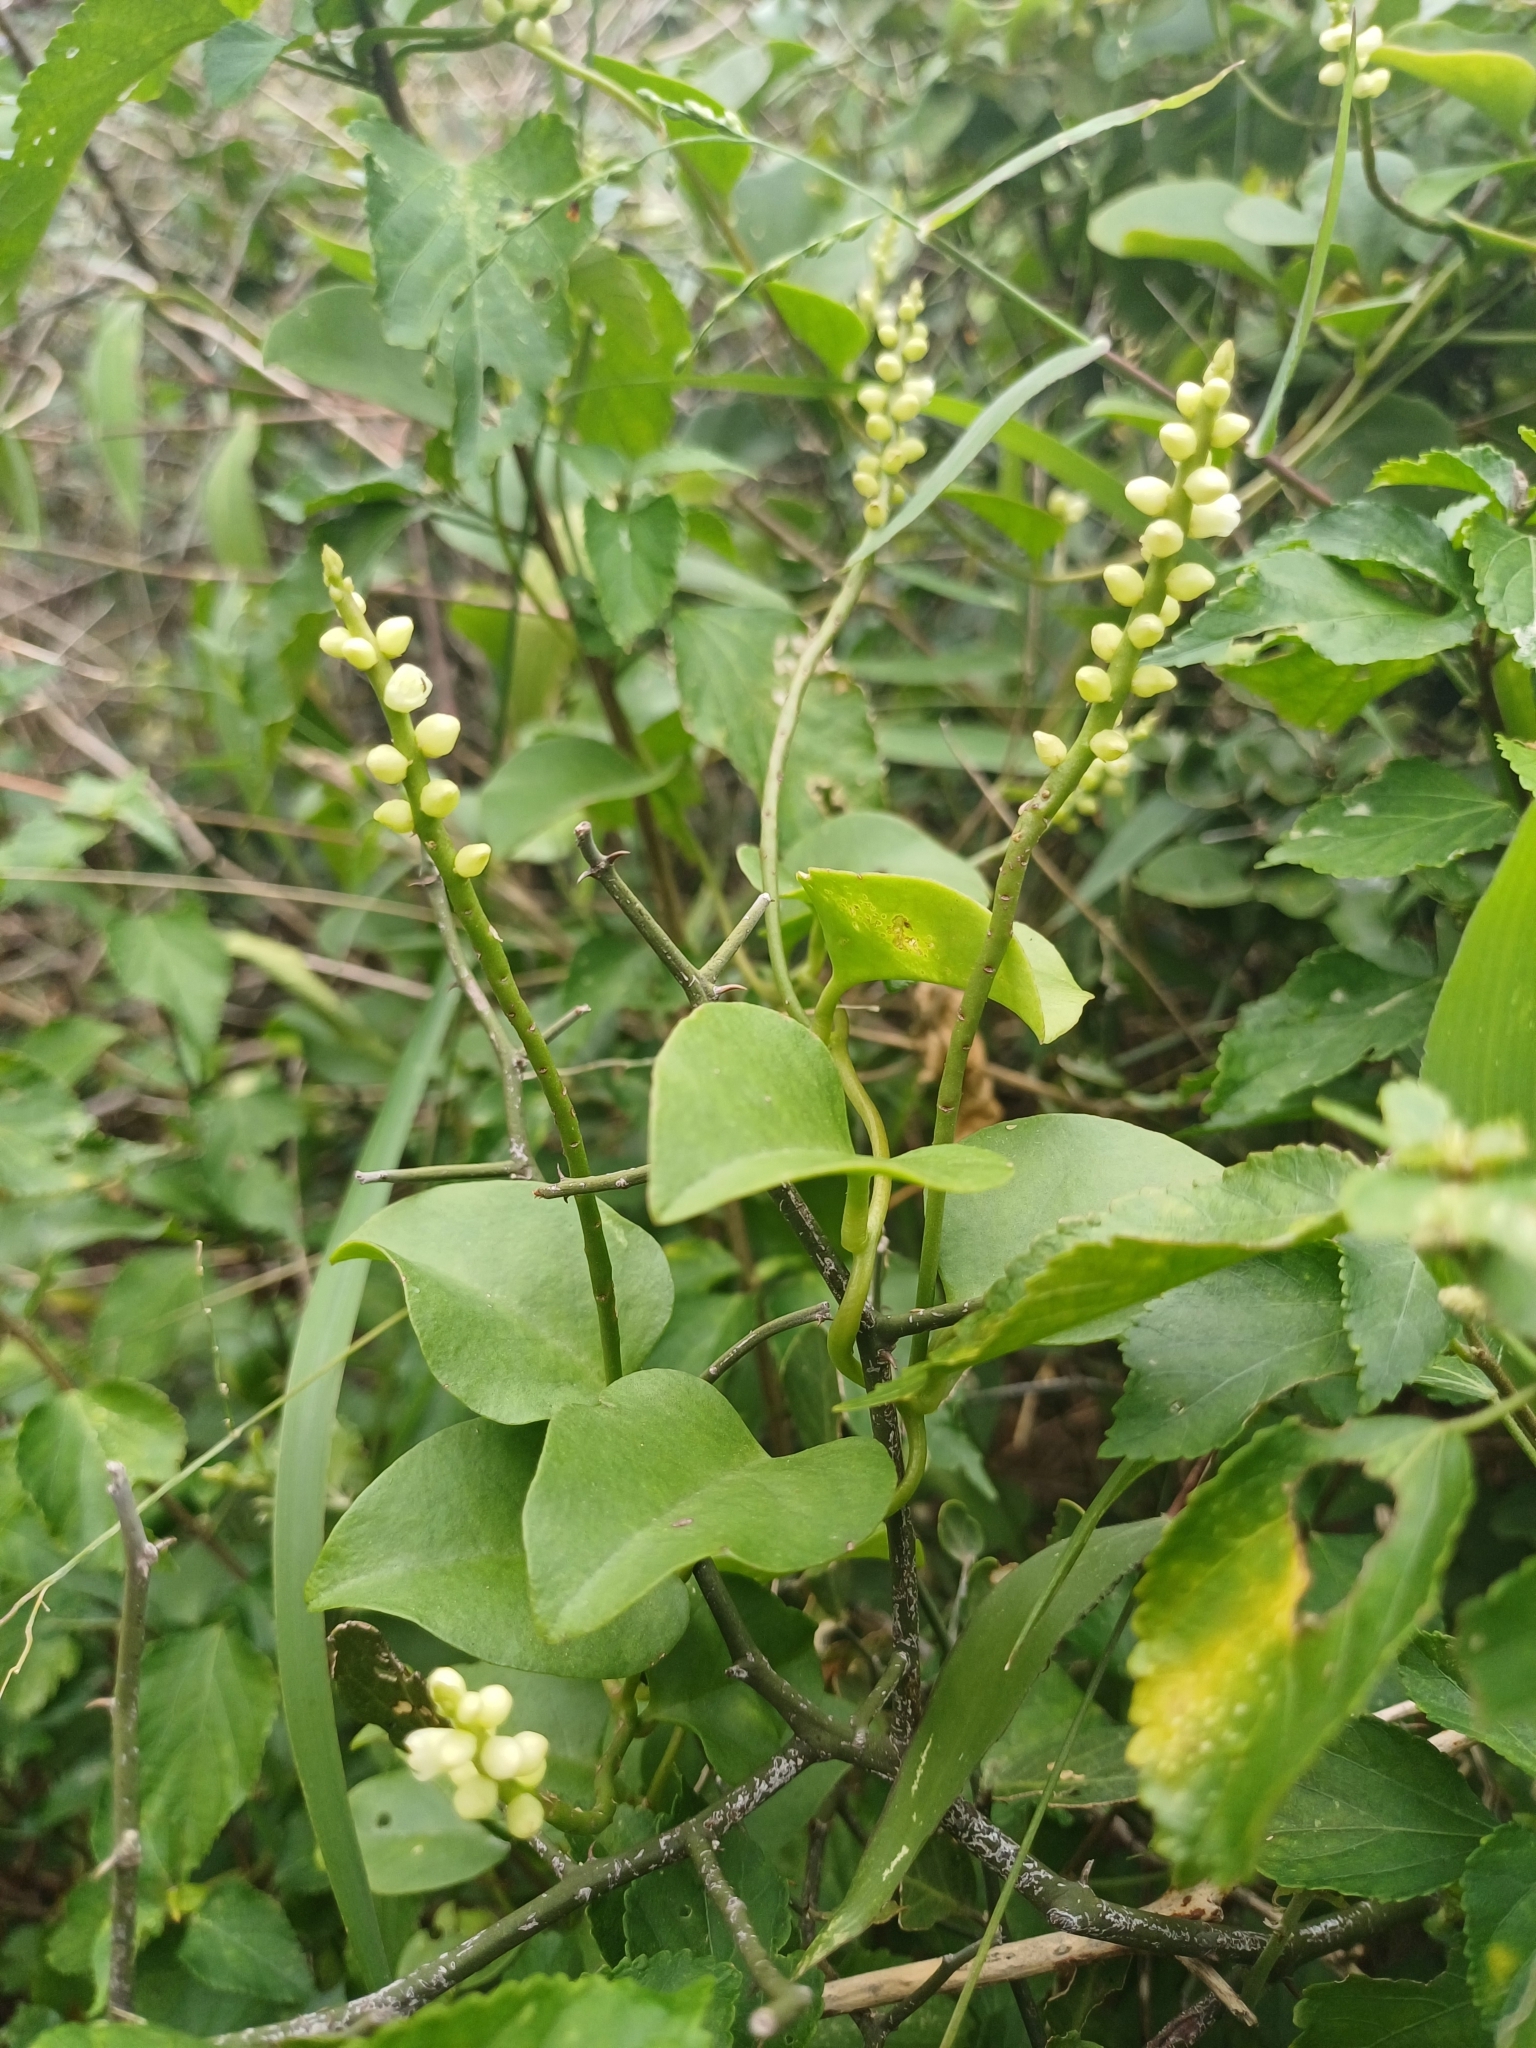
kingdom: Plantae
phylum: Tracheophyta
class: Magnoliopsida
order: Caryophyllales
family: Basellaceae
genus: Basella
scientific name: Basella alba
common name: Indian spinach
